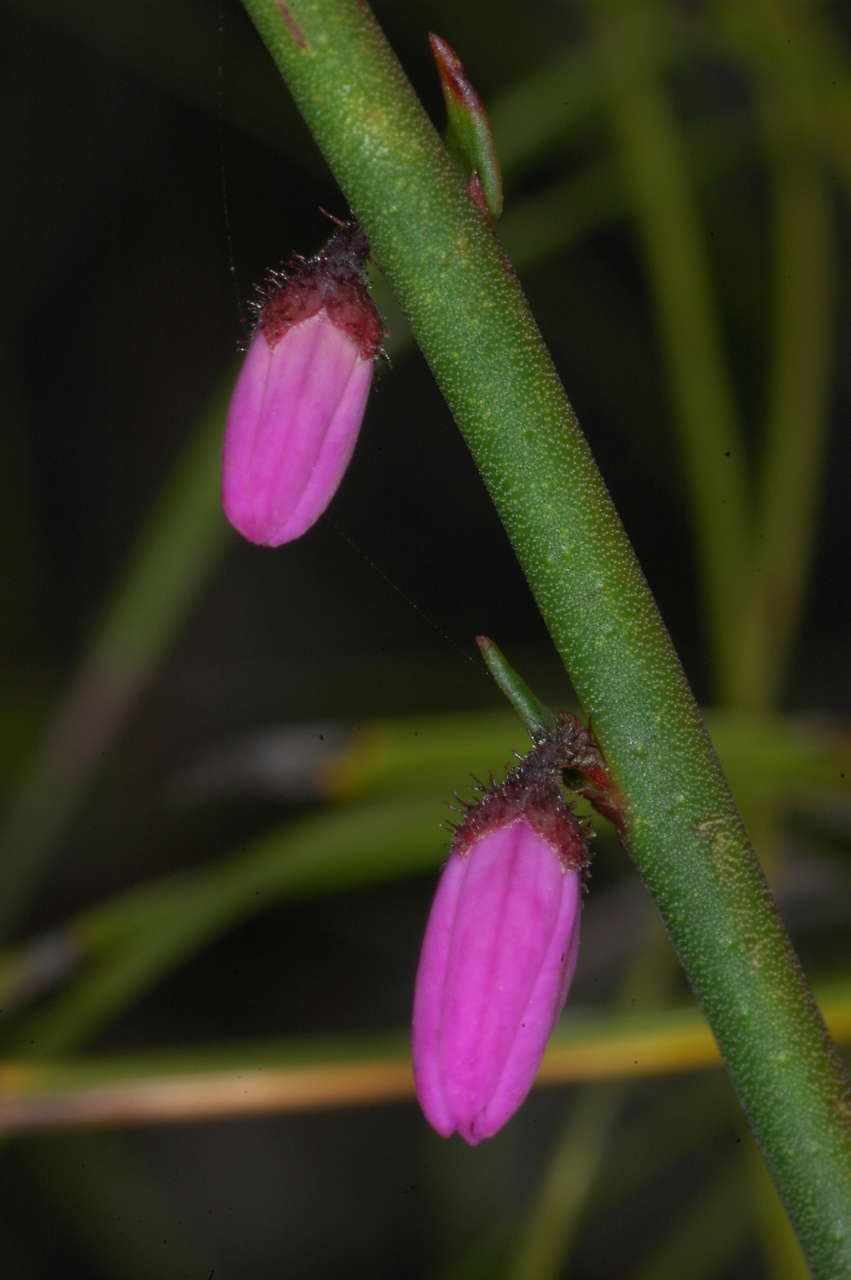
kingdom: Plantae
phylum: Tracheophyta
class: Magnoliopsida
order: Oxalidales
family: Elaeocarpaceae
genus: Tetratheca
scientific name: Tetratheca stenocarpa
